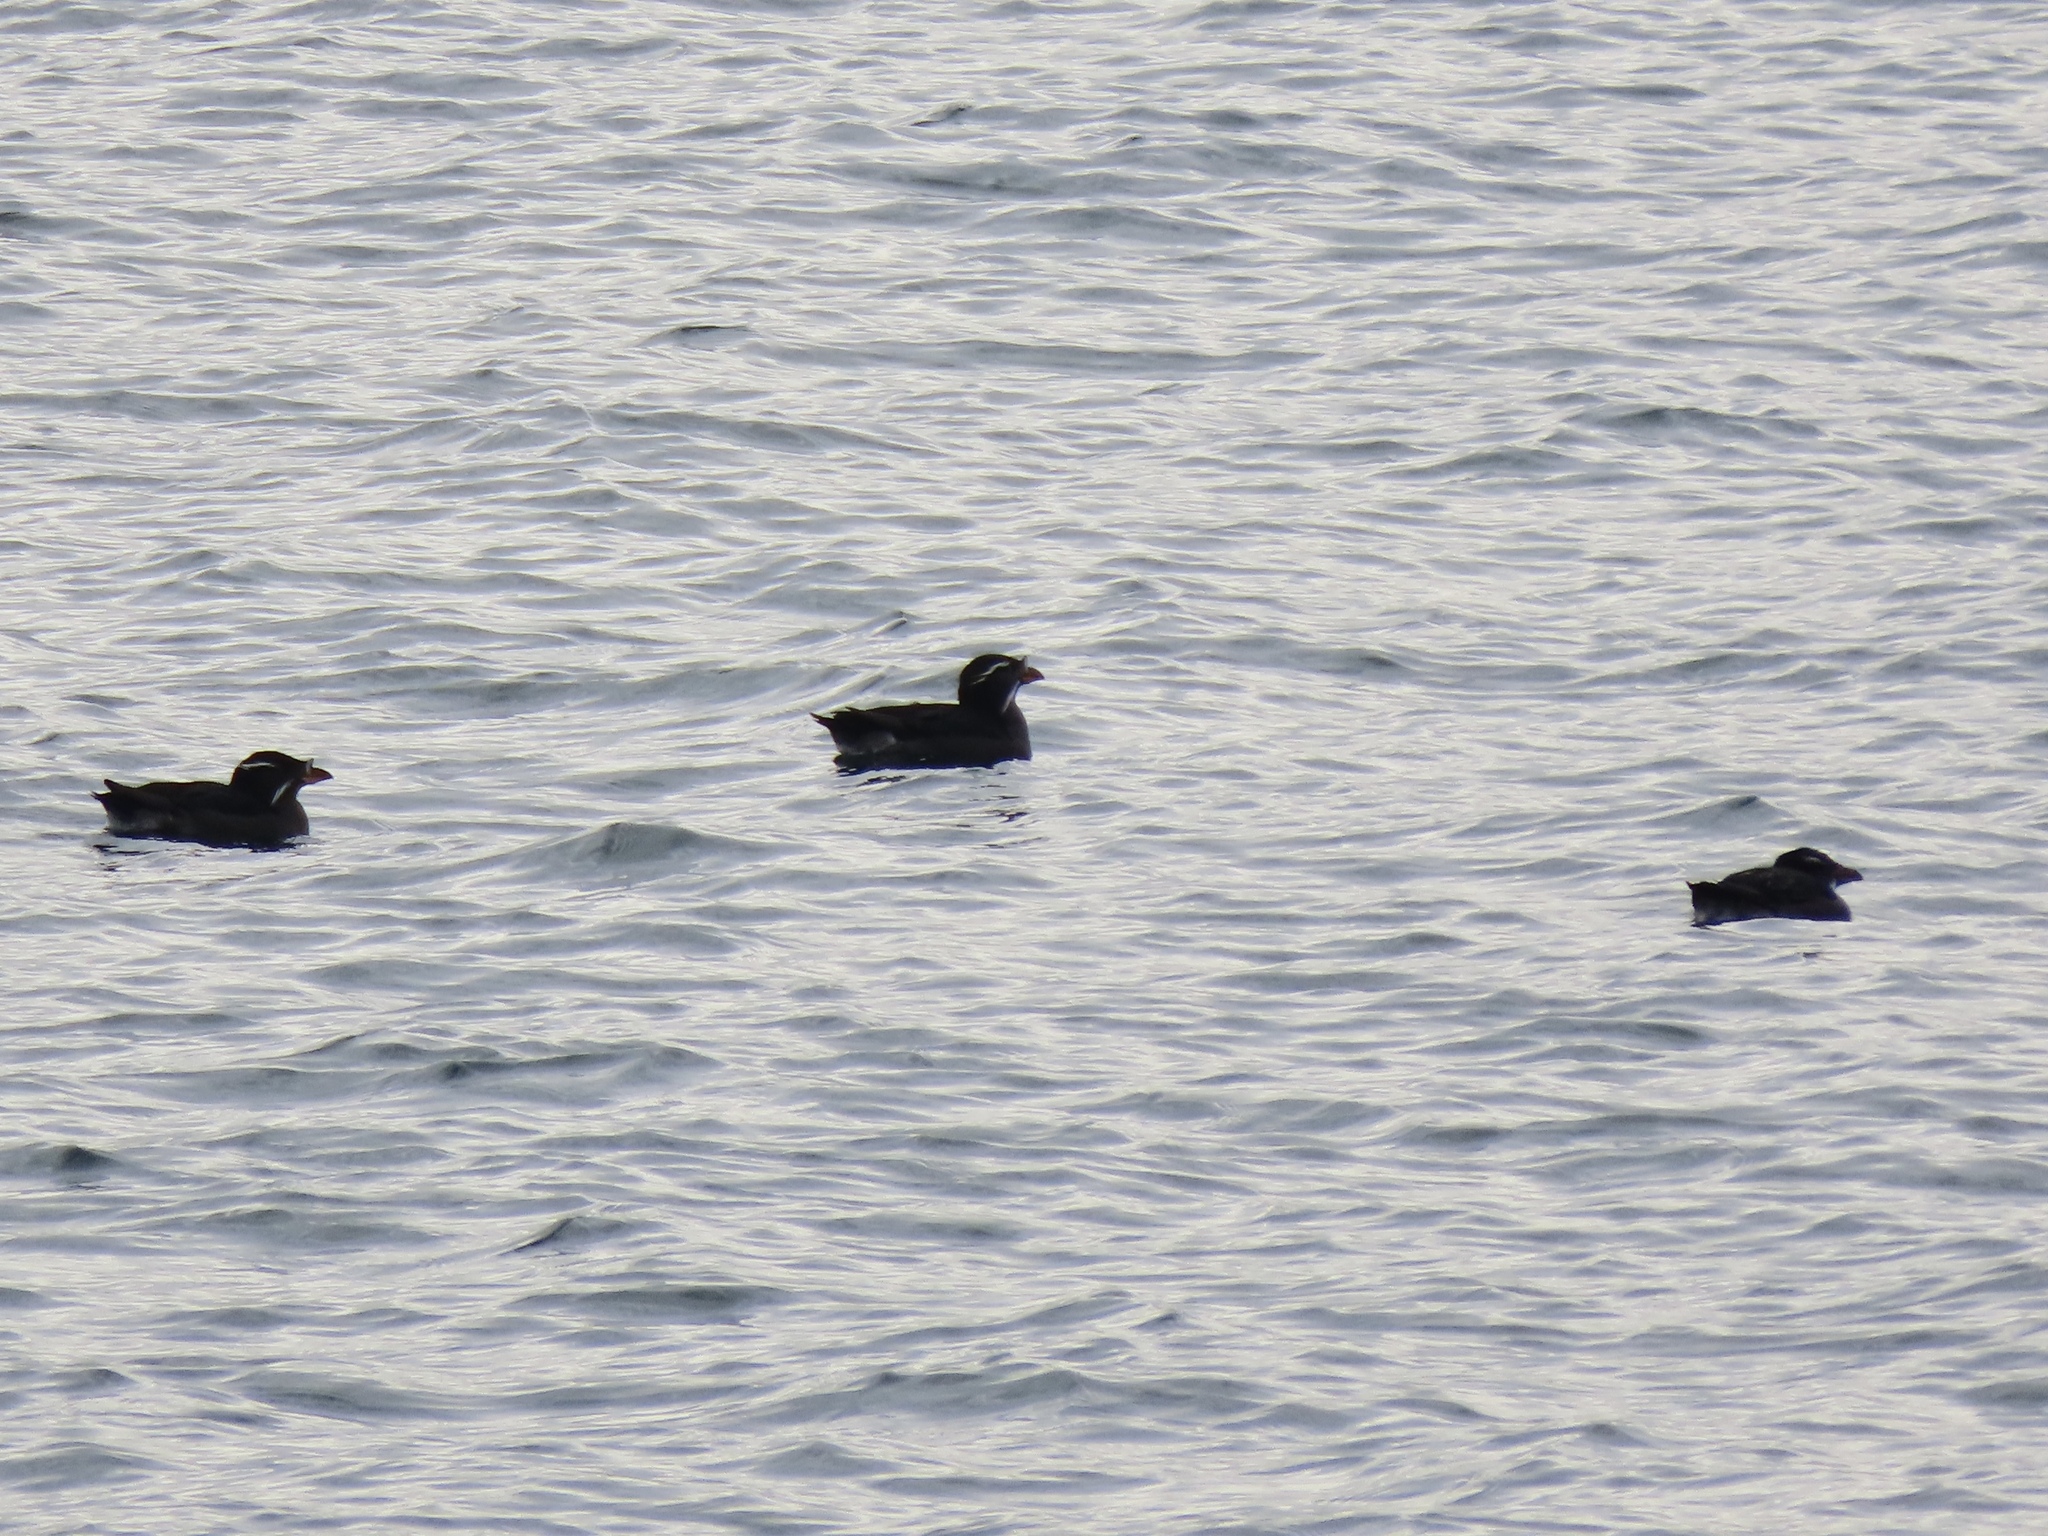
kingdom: Animalia
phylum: Chordata
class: Aves
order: Charadriiformes
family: Alcidae
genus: Cerorhinca
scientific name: Cerorhinca monocerata
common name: Rhinoceros auklet
